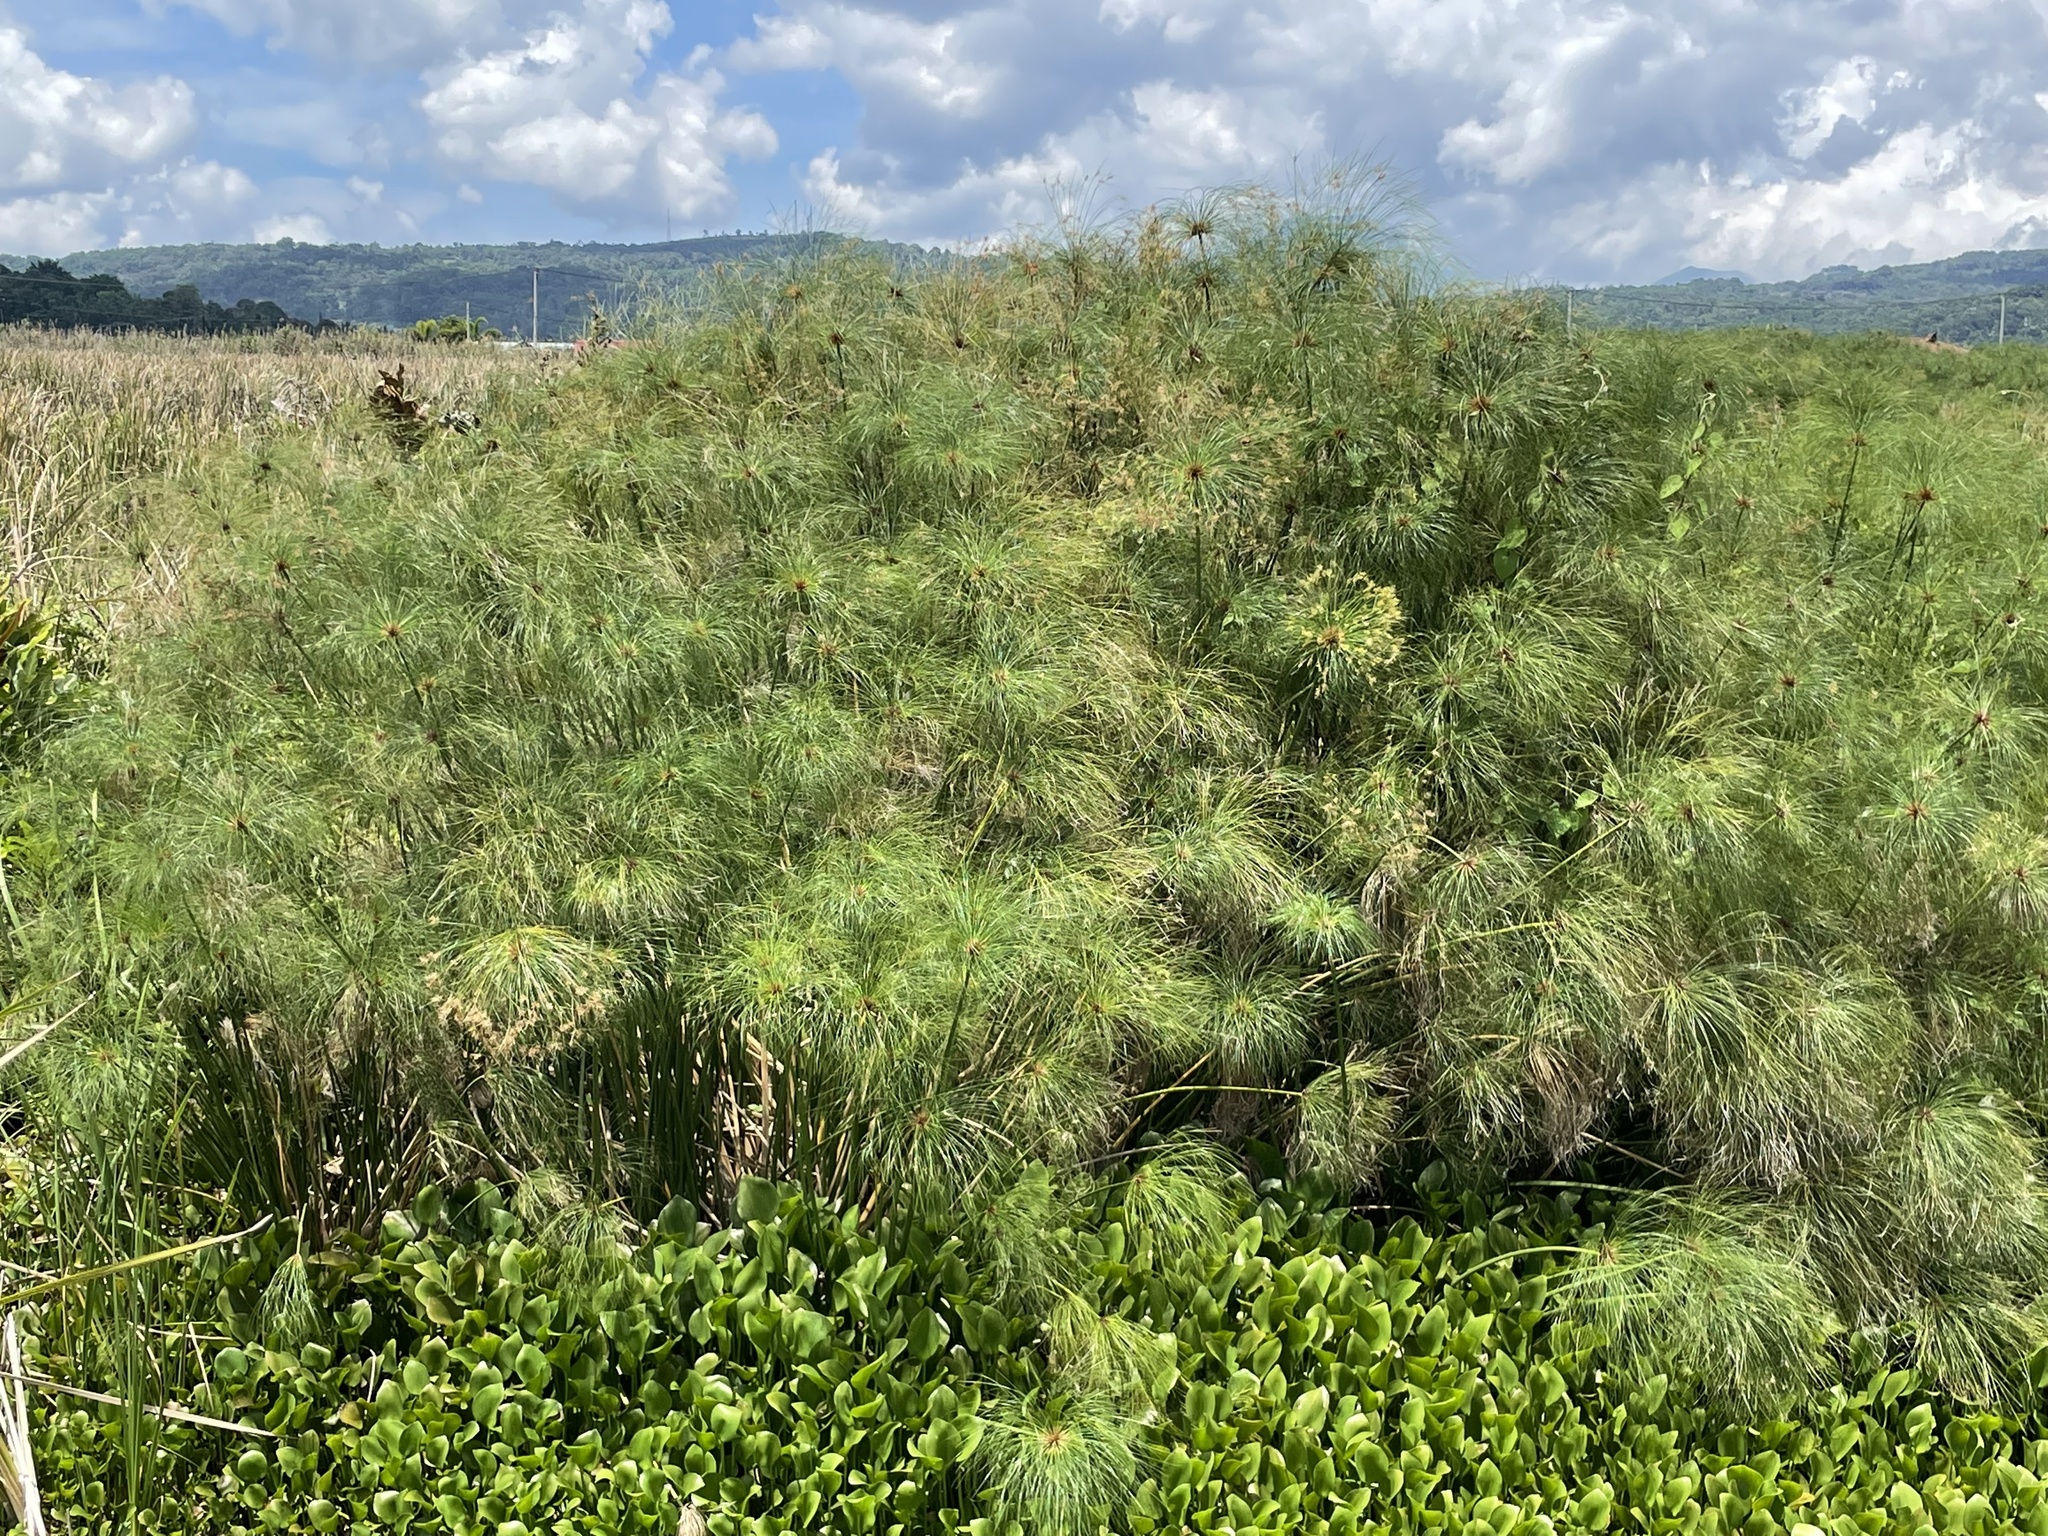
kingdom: Plantae
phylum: Tracheophyta
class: Liliopsida
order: Poales
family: Cyperaceae
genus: Cyperus
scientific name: Cyperus papyrus
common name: Papyrus
